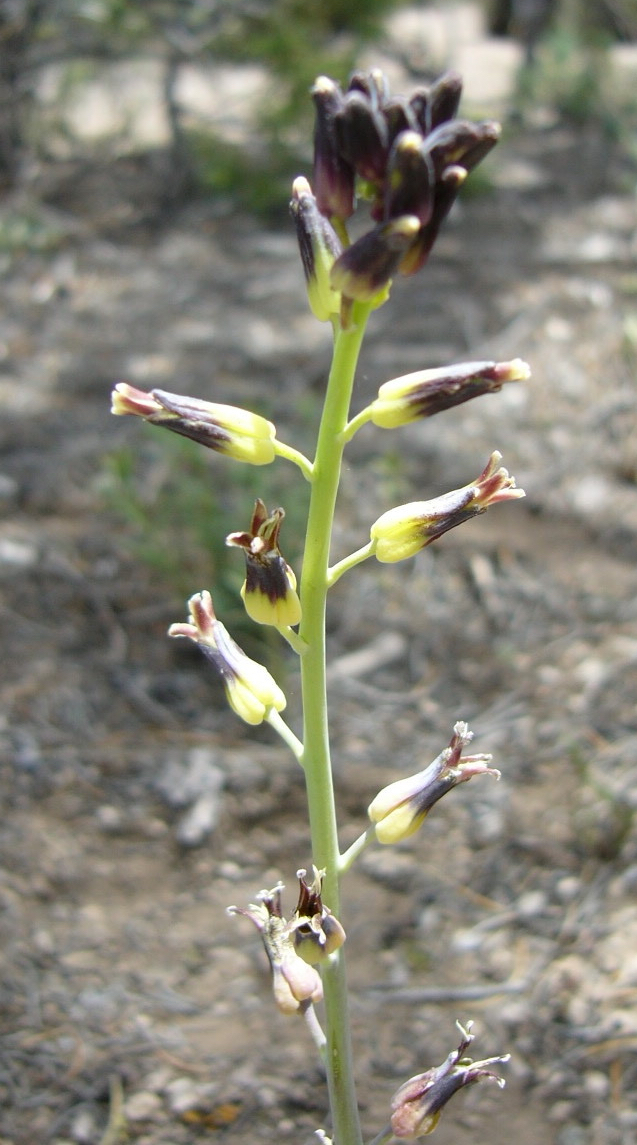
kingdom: Plantae
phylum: Tracheophyta
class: Magnoliopsida
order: Brassicales
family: Brassicaceae
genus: Streptanthus
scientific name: Streptanthus cordatus
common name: Heart-leaf jewel-flower
